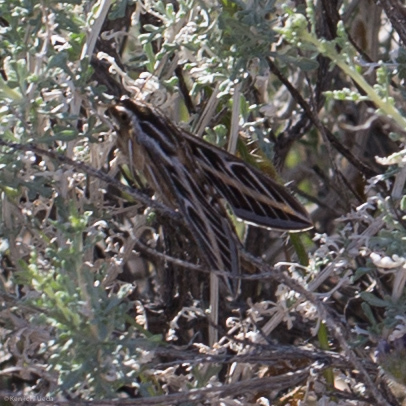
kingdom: Animalia
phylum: Arthropoda
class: Insecta
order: Lepidoptera
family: Sphingidae
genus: Hyles
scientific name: Hyles lineata
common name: White-lined sphinx
